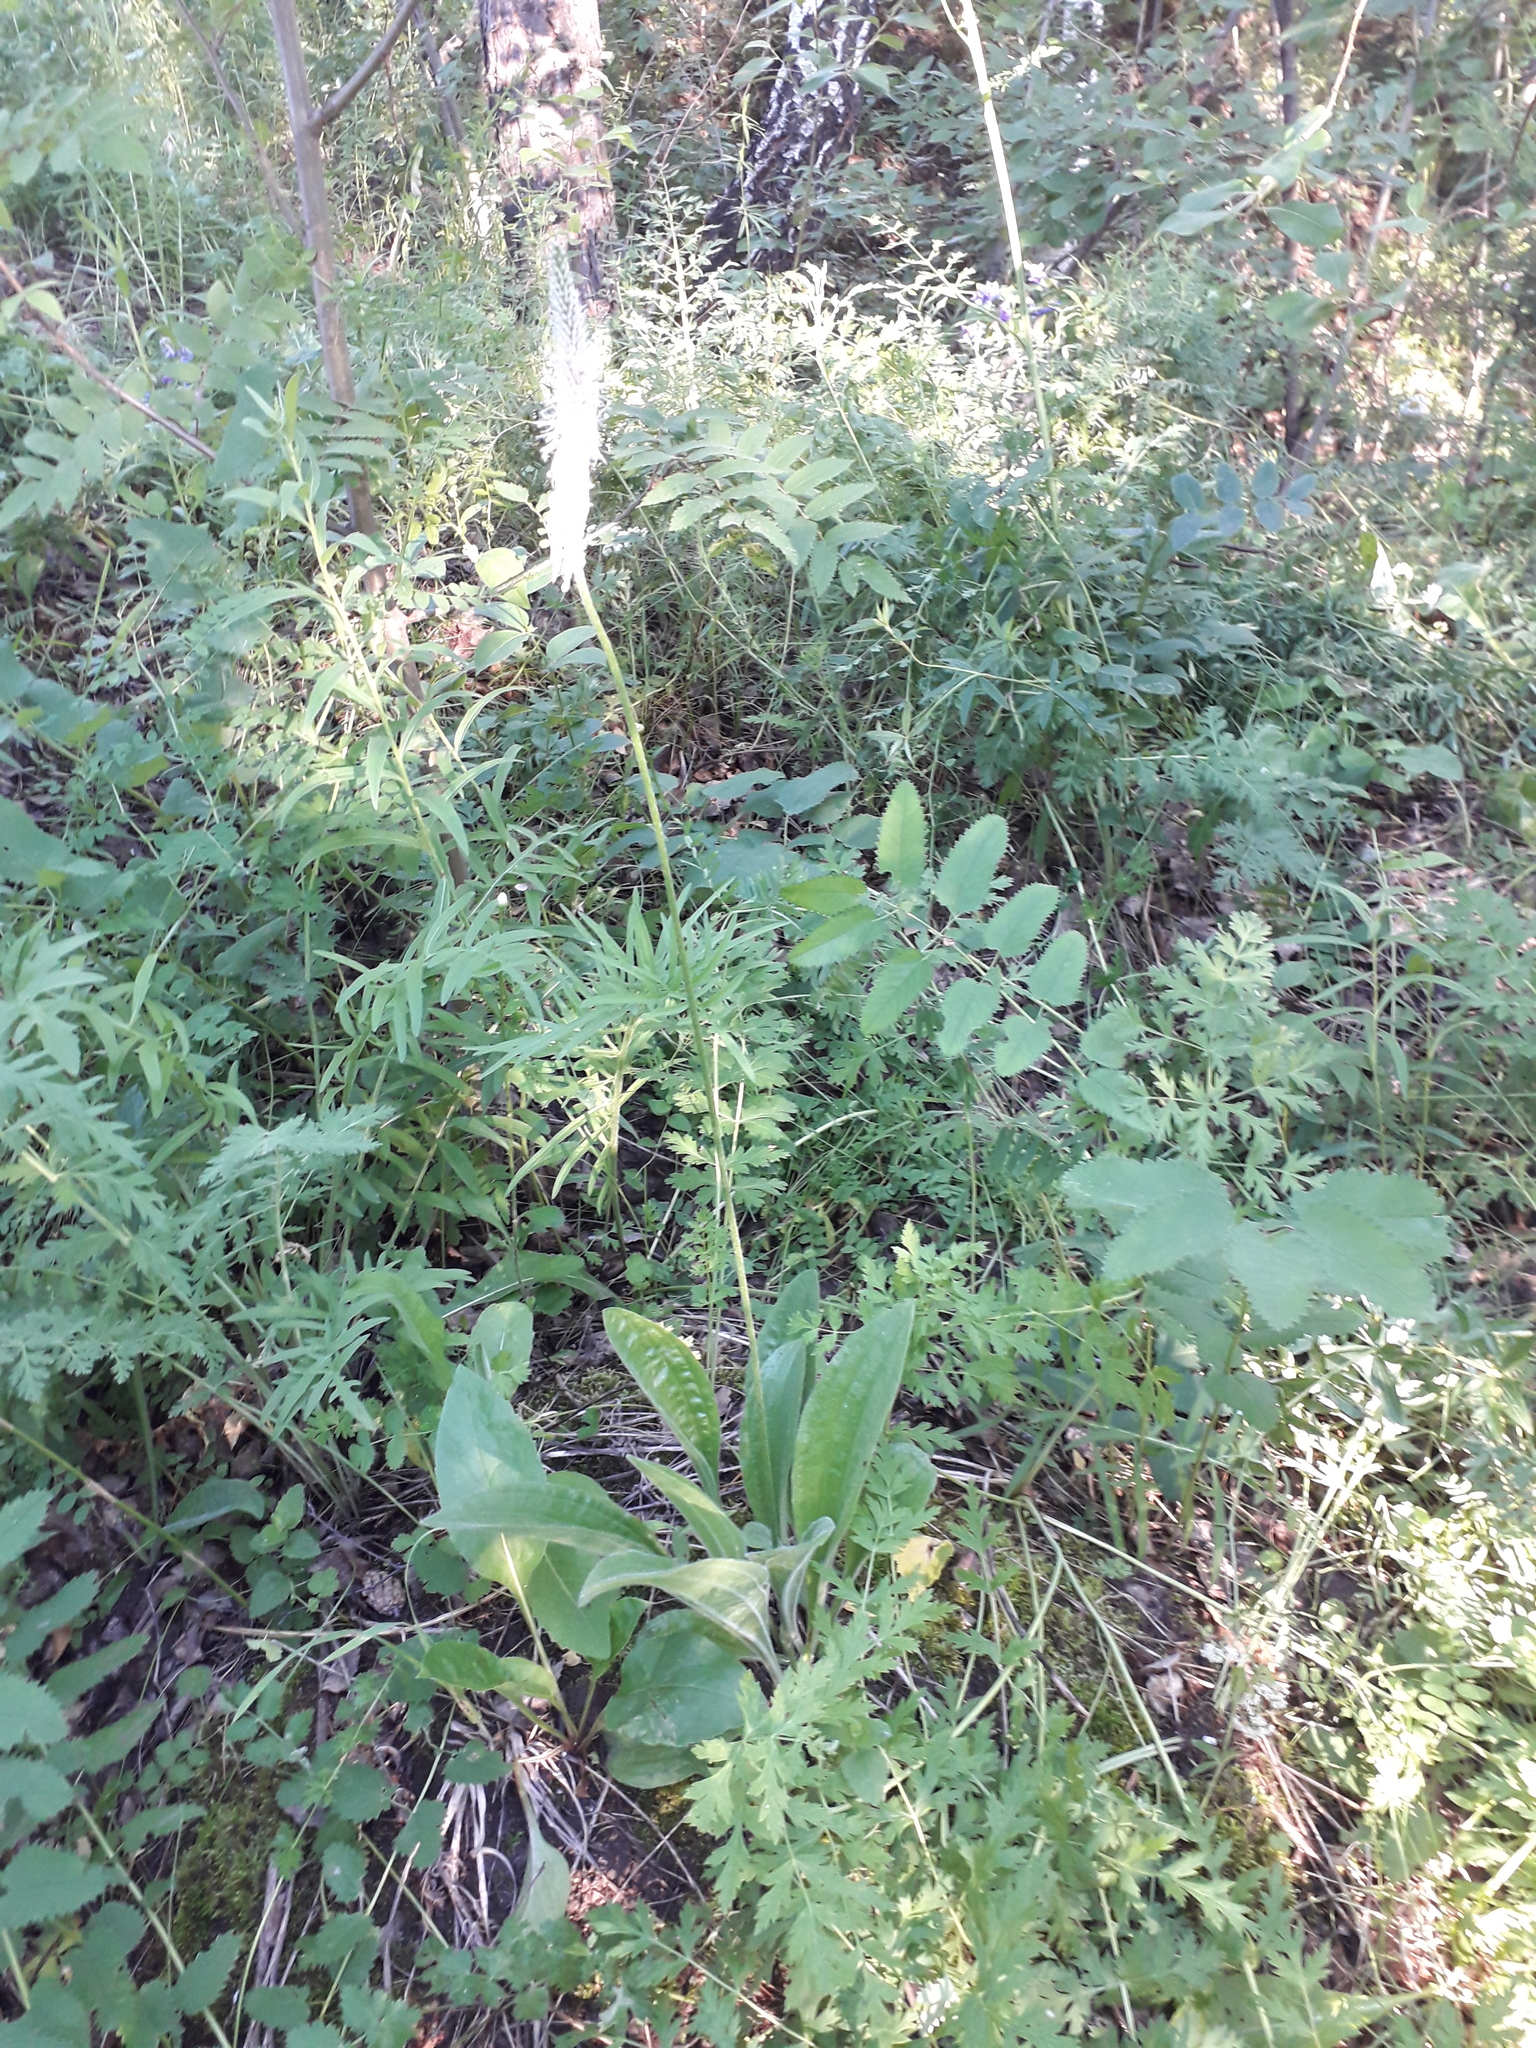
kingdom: Plantae
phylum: Tracheophyta
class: Magnoliopsida
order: Lamiales
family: Plantaginaceae
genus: Plantago
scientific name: Plantago urvillei
